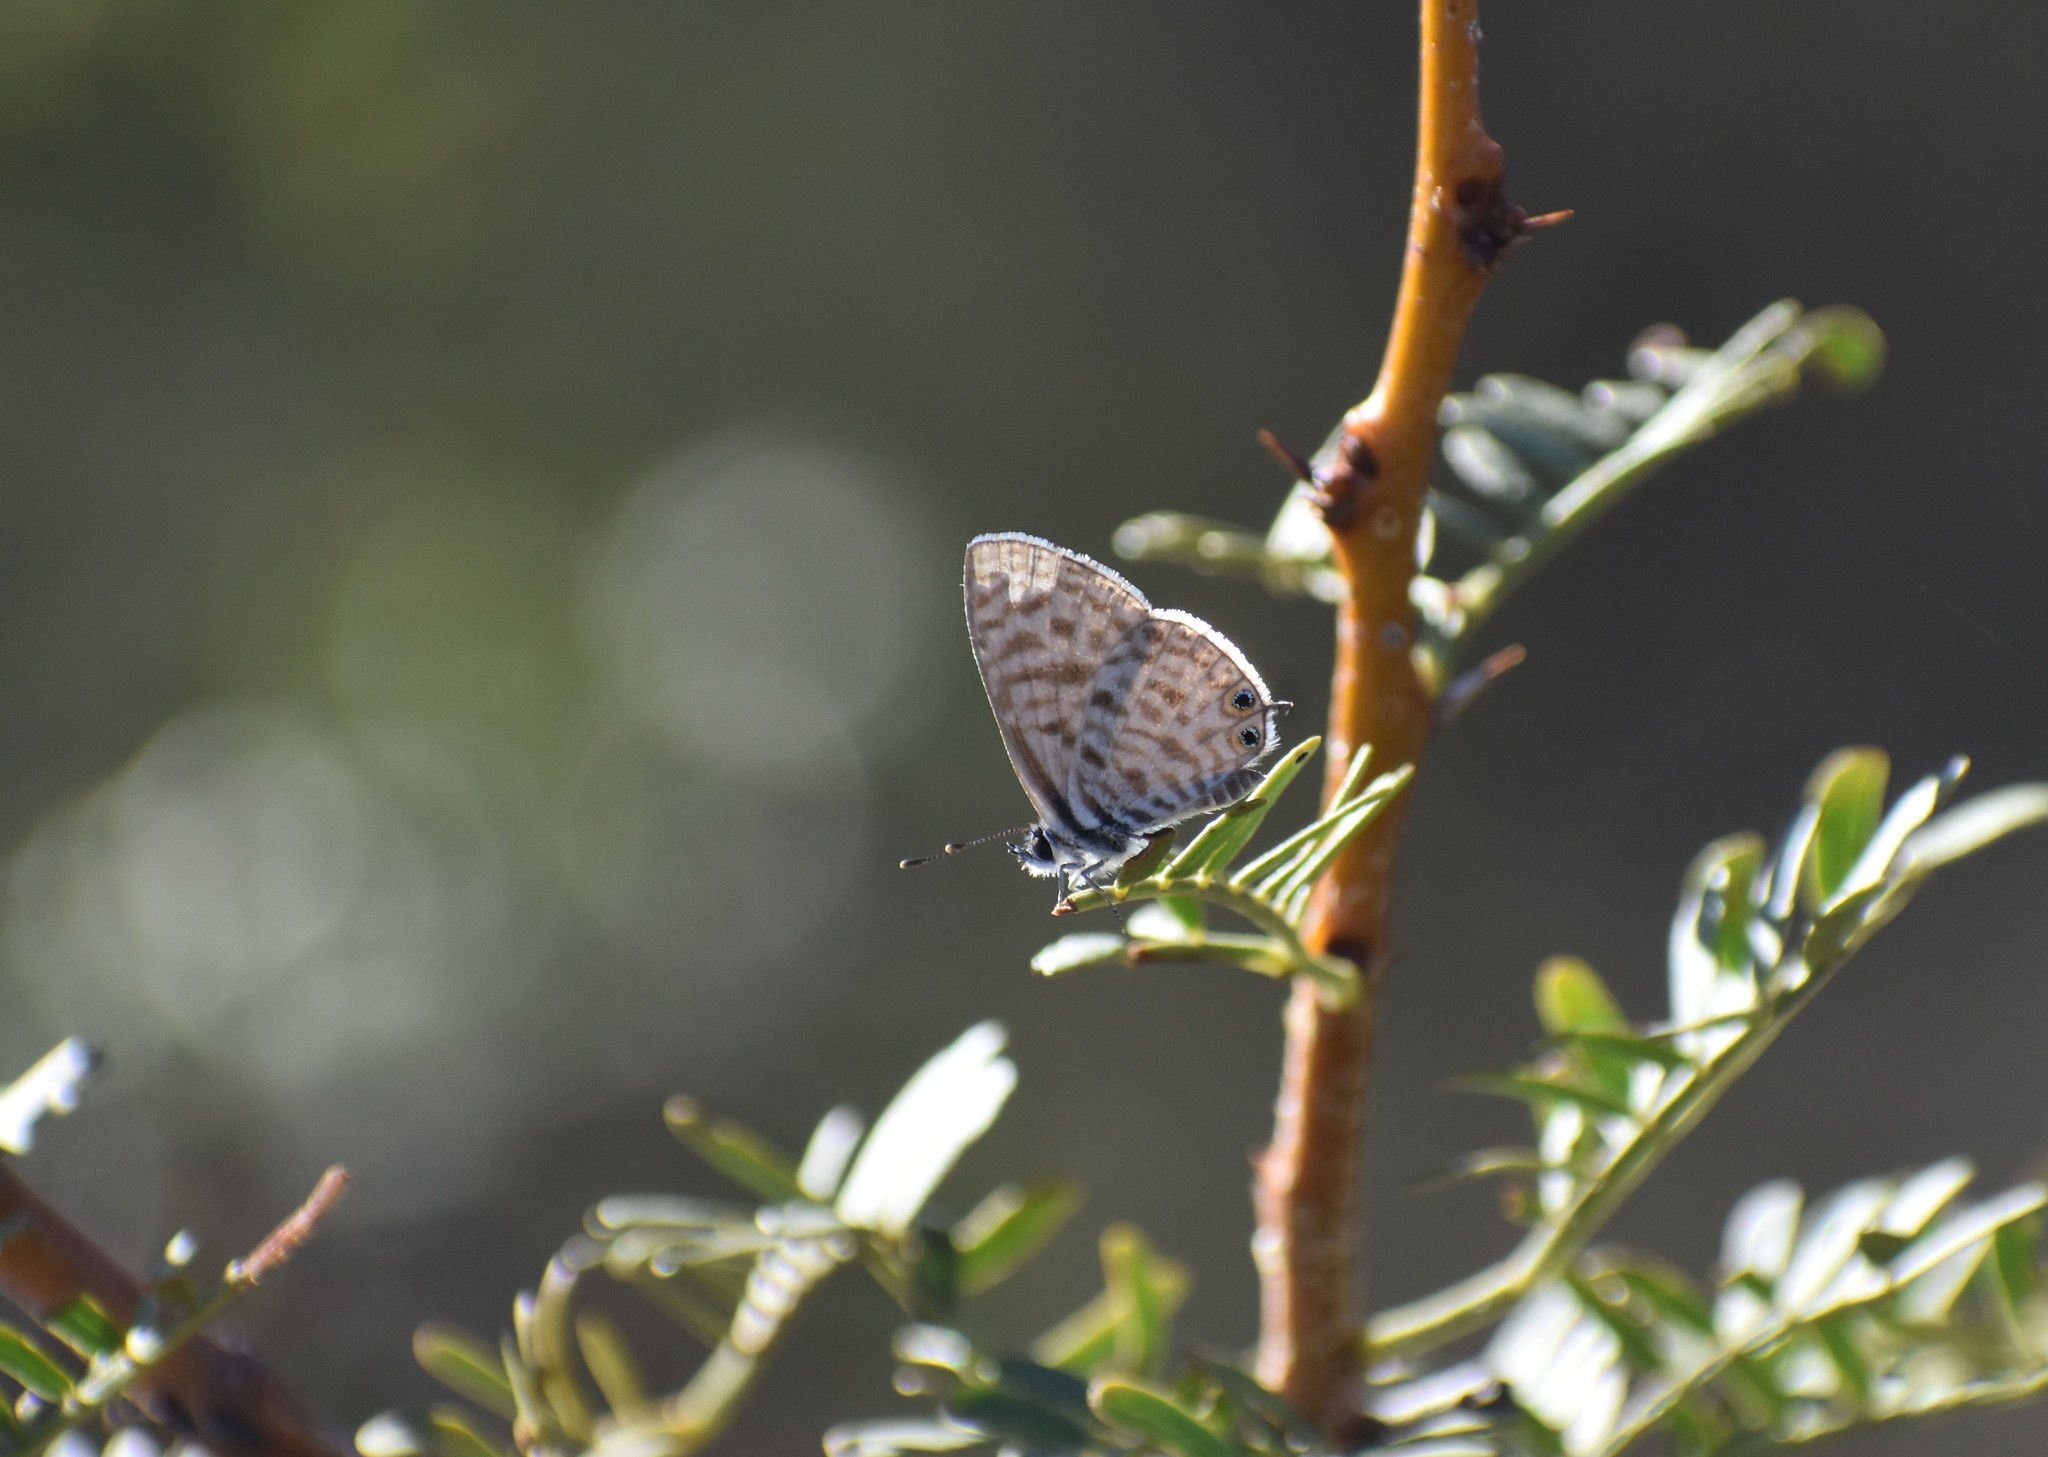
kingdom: Animalia
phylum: Arthropoda
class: Insecta
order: Lepidoptera
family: Lycaenidae
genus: Leptotes
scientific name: Leptotes
